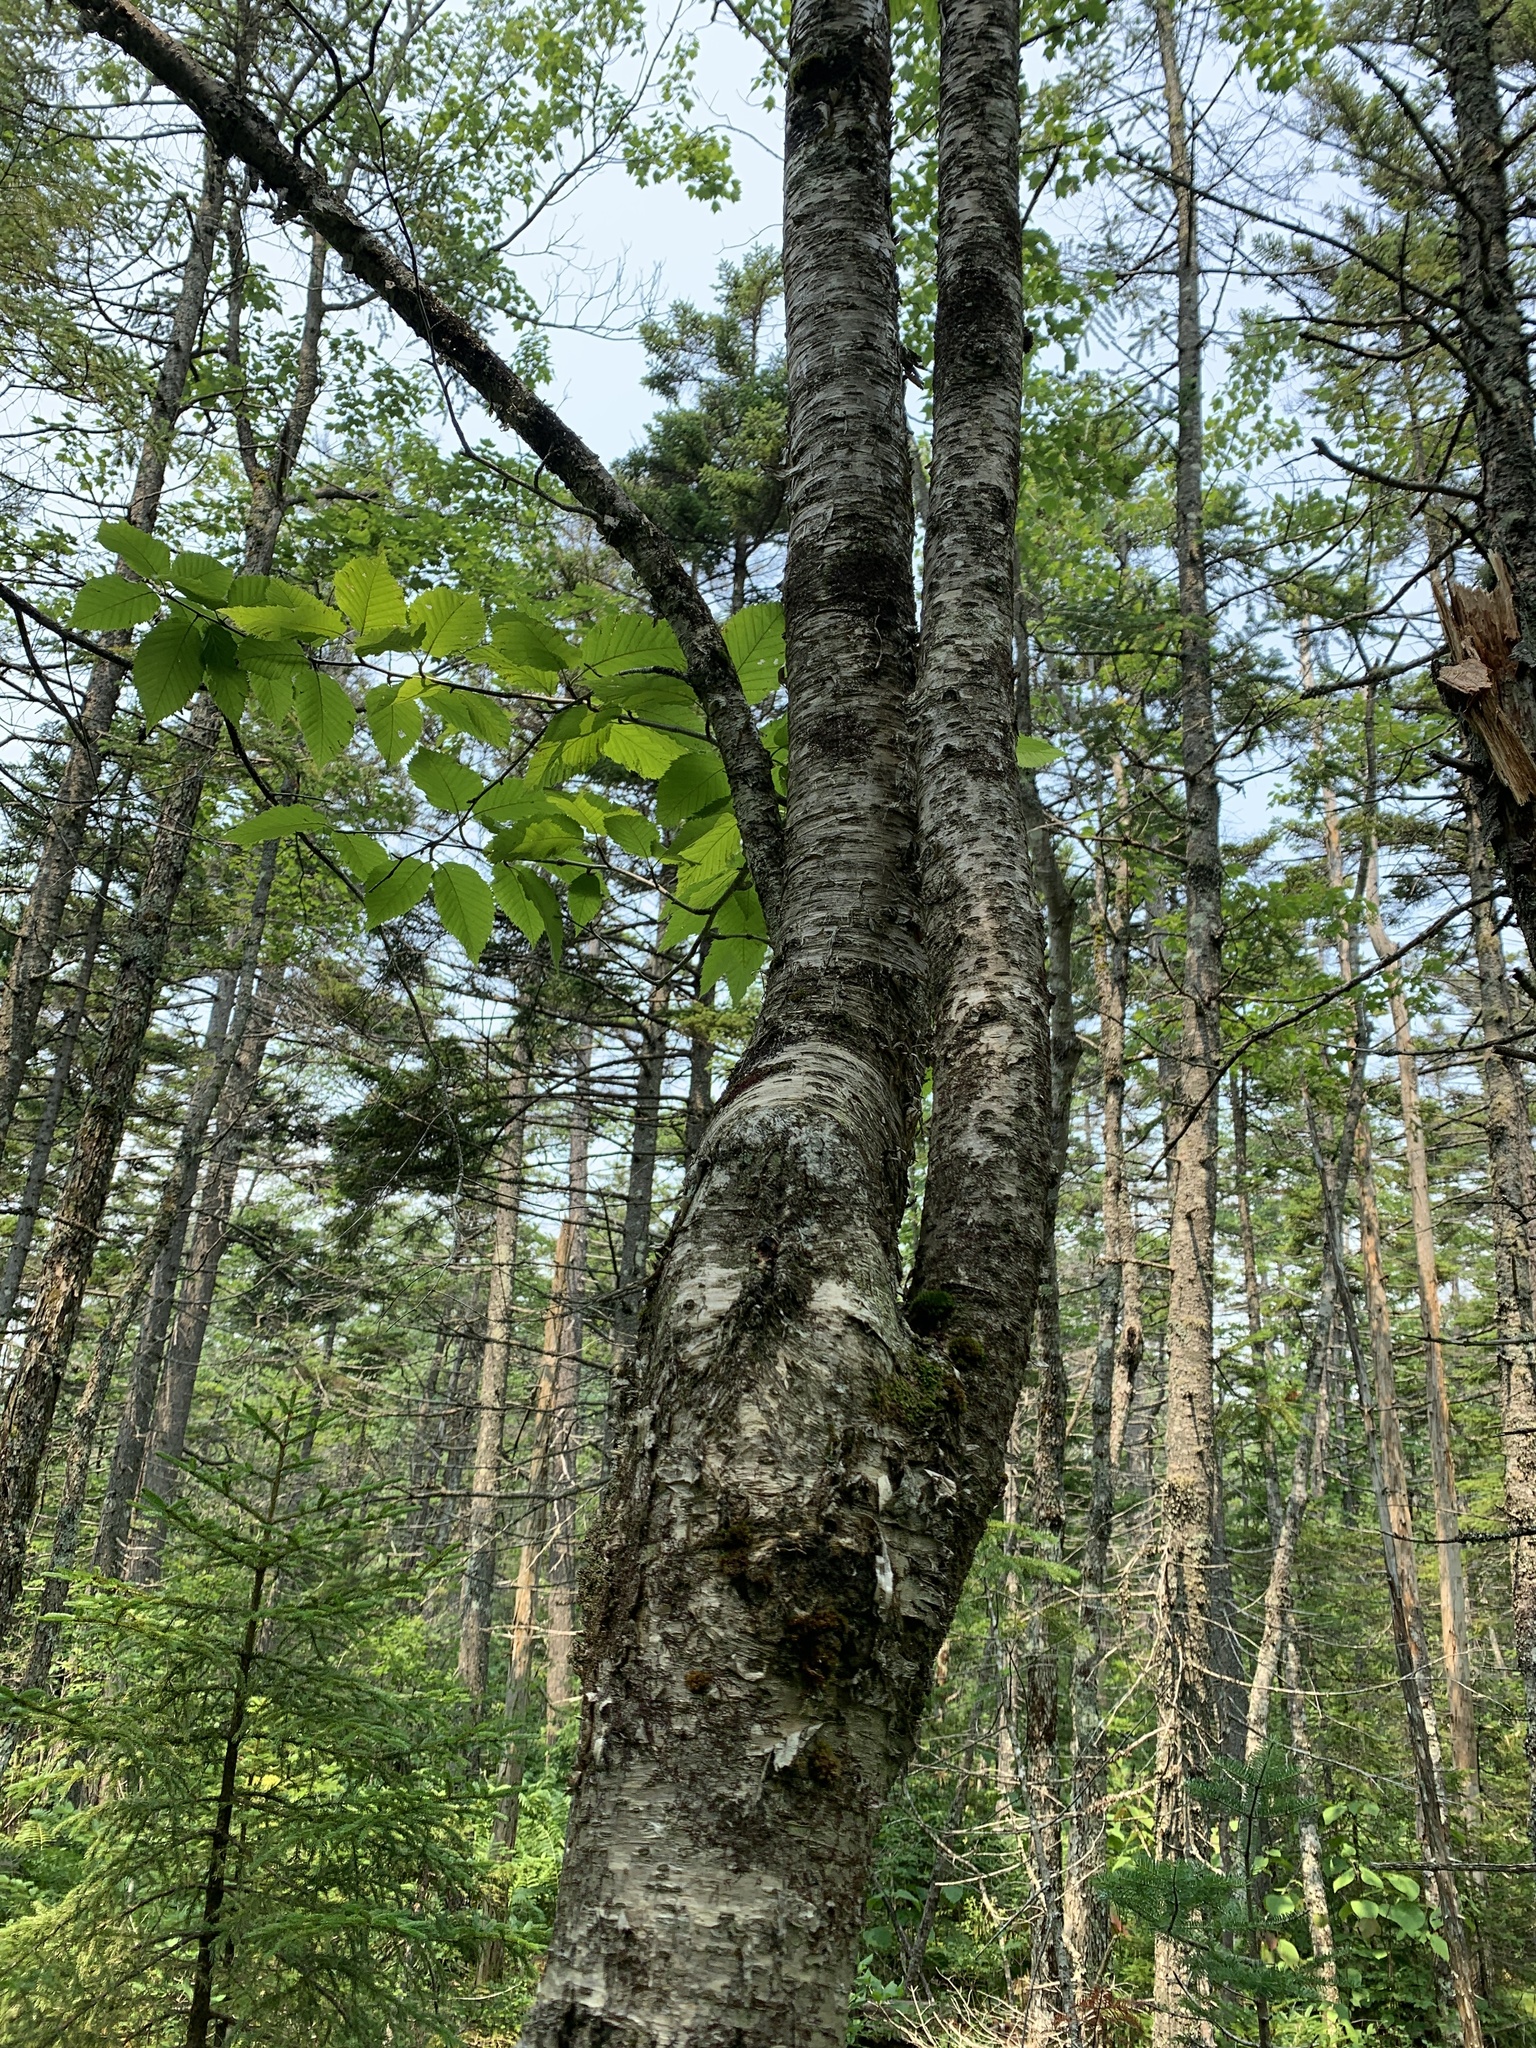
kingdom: Plantae
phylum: Tracheophyta
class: Magnoliopsida
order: Fagales
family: Betulaceae
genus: Betula
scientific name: Betula alleghaniensis
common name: Yellow birch
